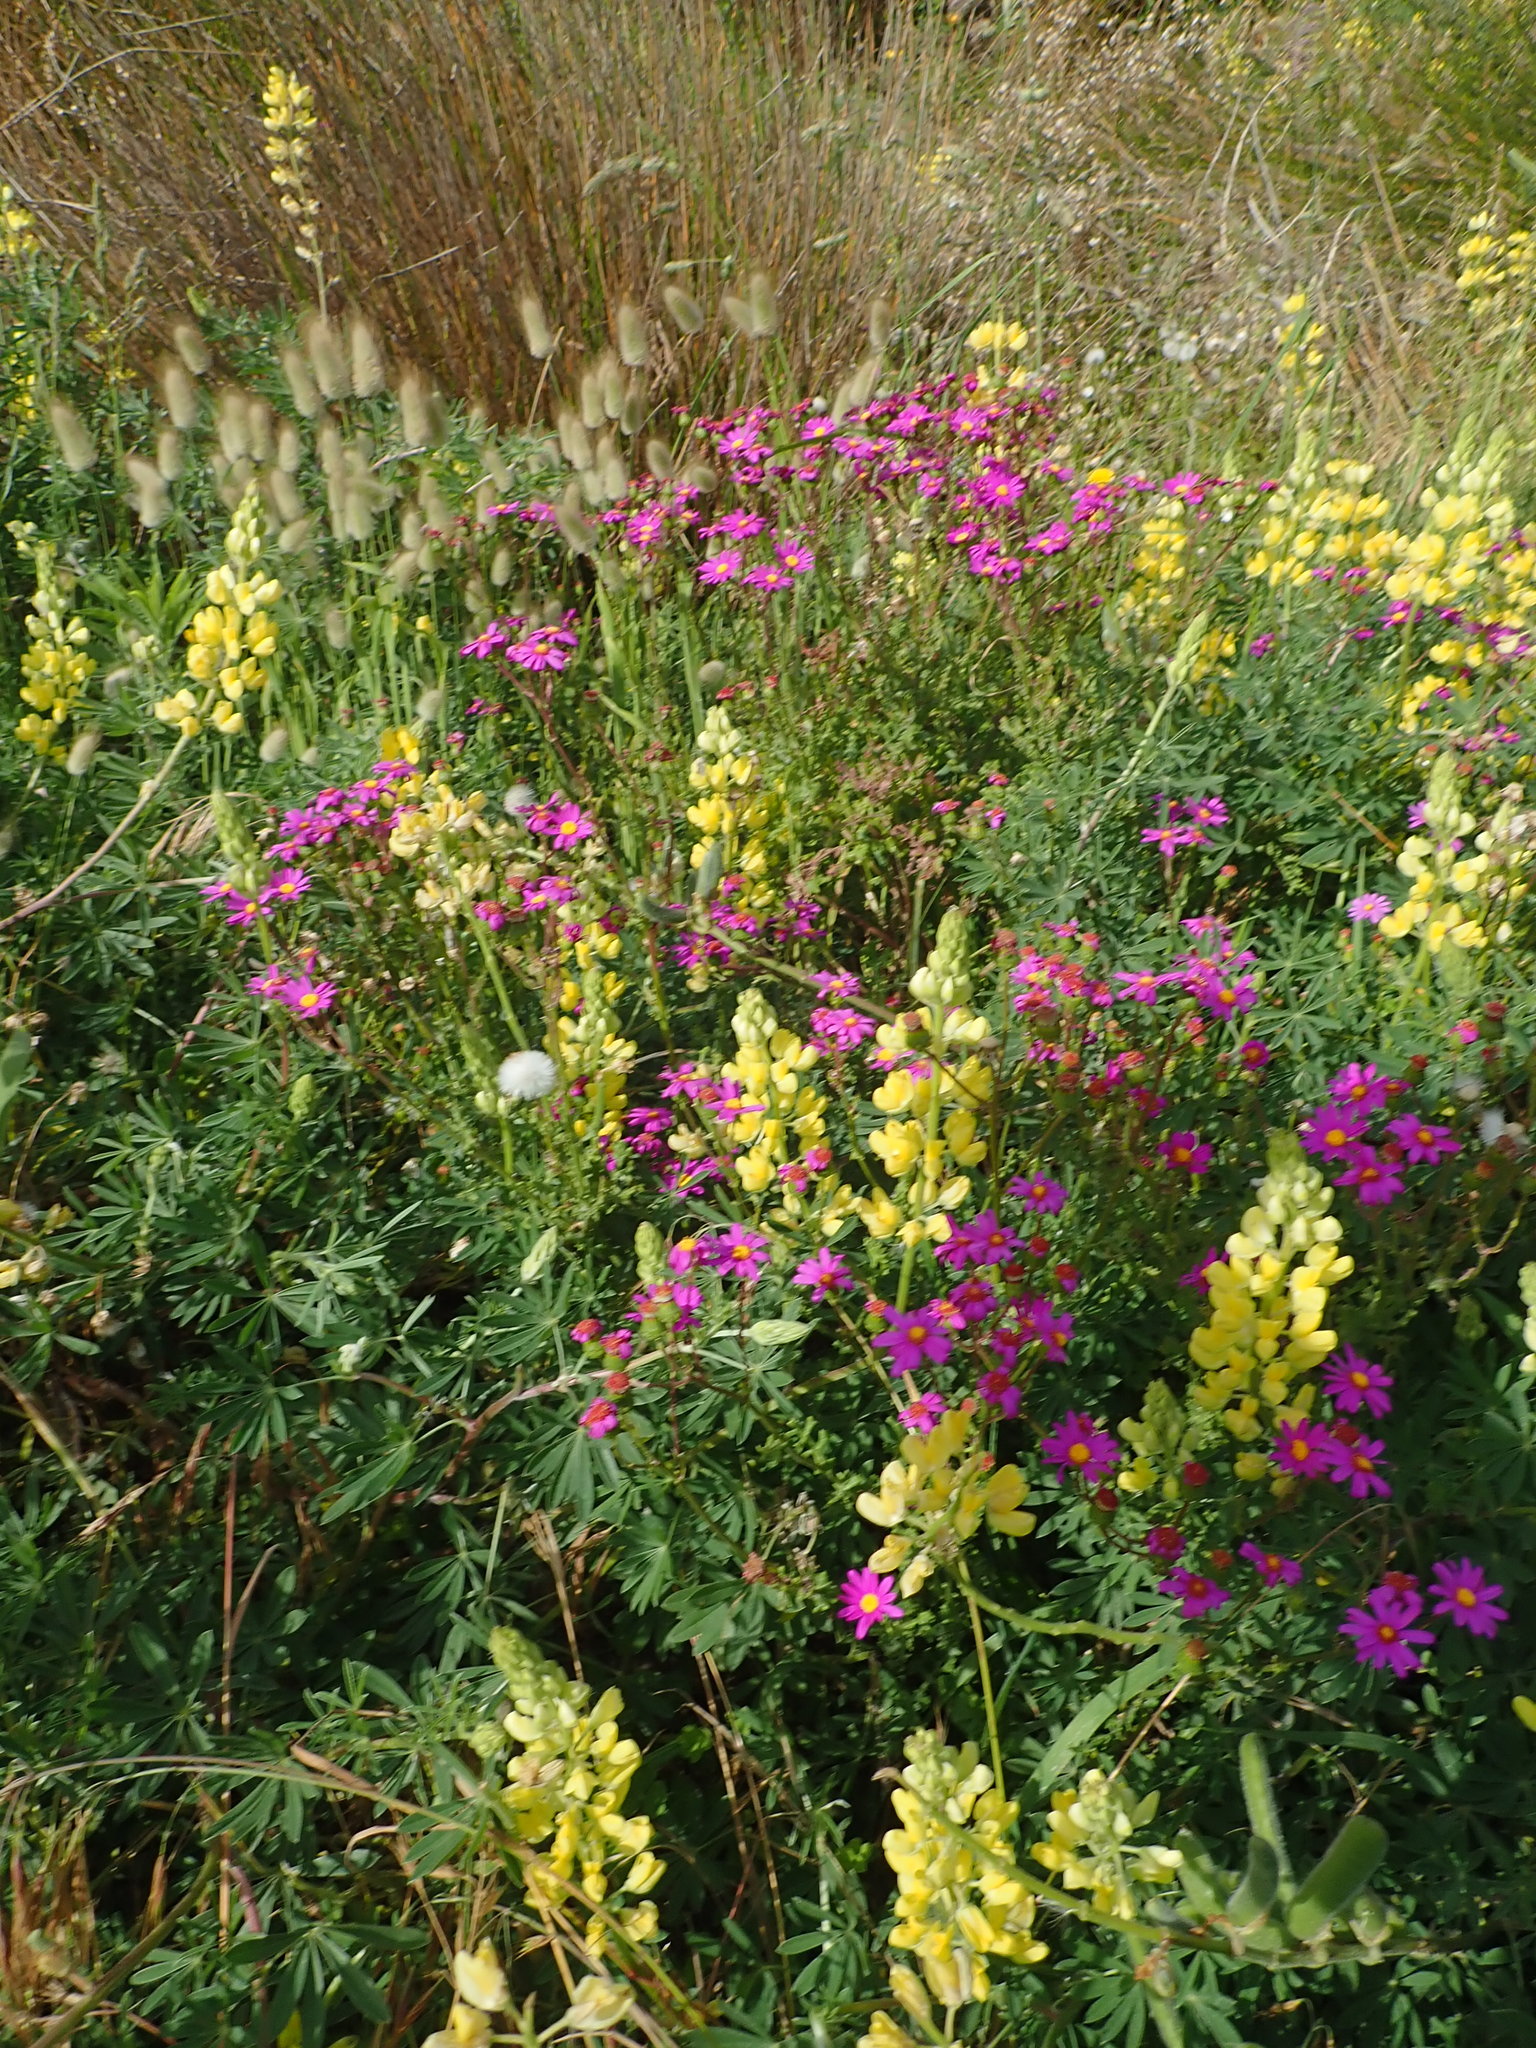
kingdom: Plantae
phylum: Tracheophyta
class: Magnoliopsida
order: Asterales
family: Asteraceae
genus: Senecio
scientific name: Senecio elegans
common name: Purple groundsel
